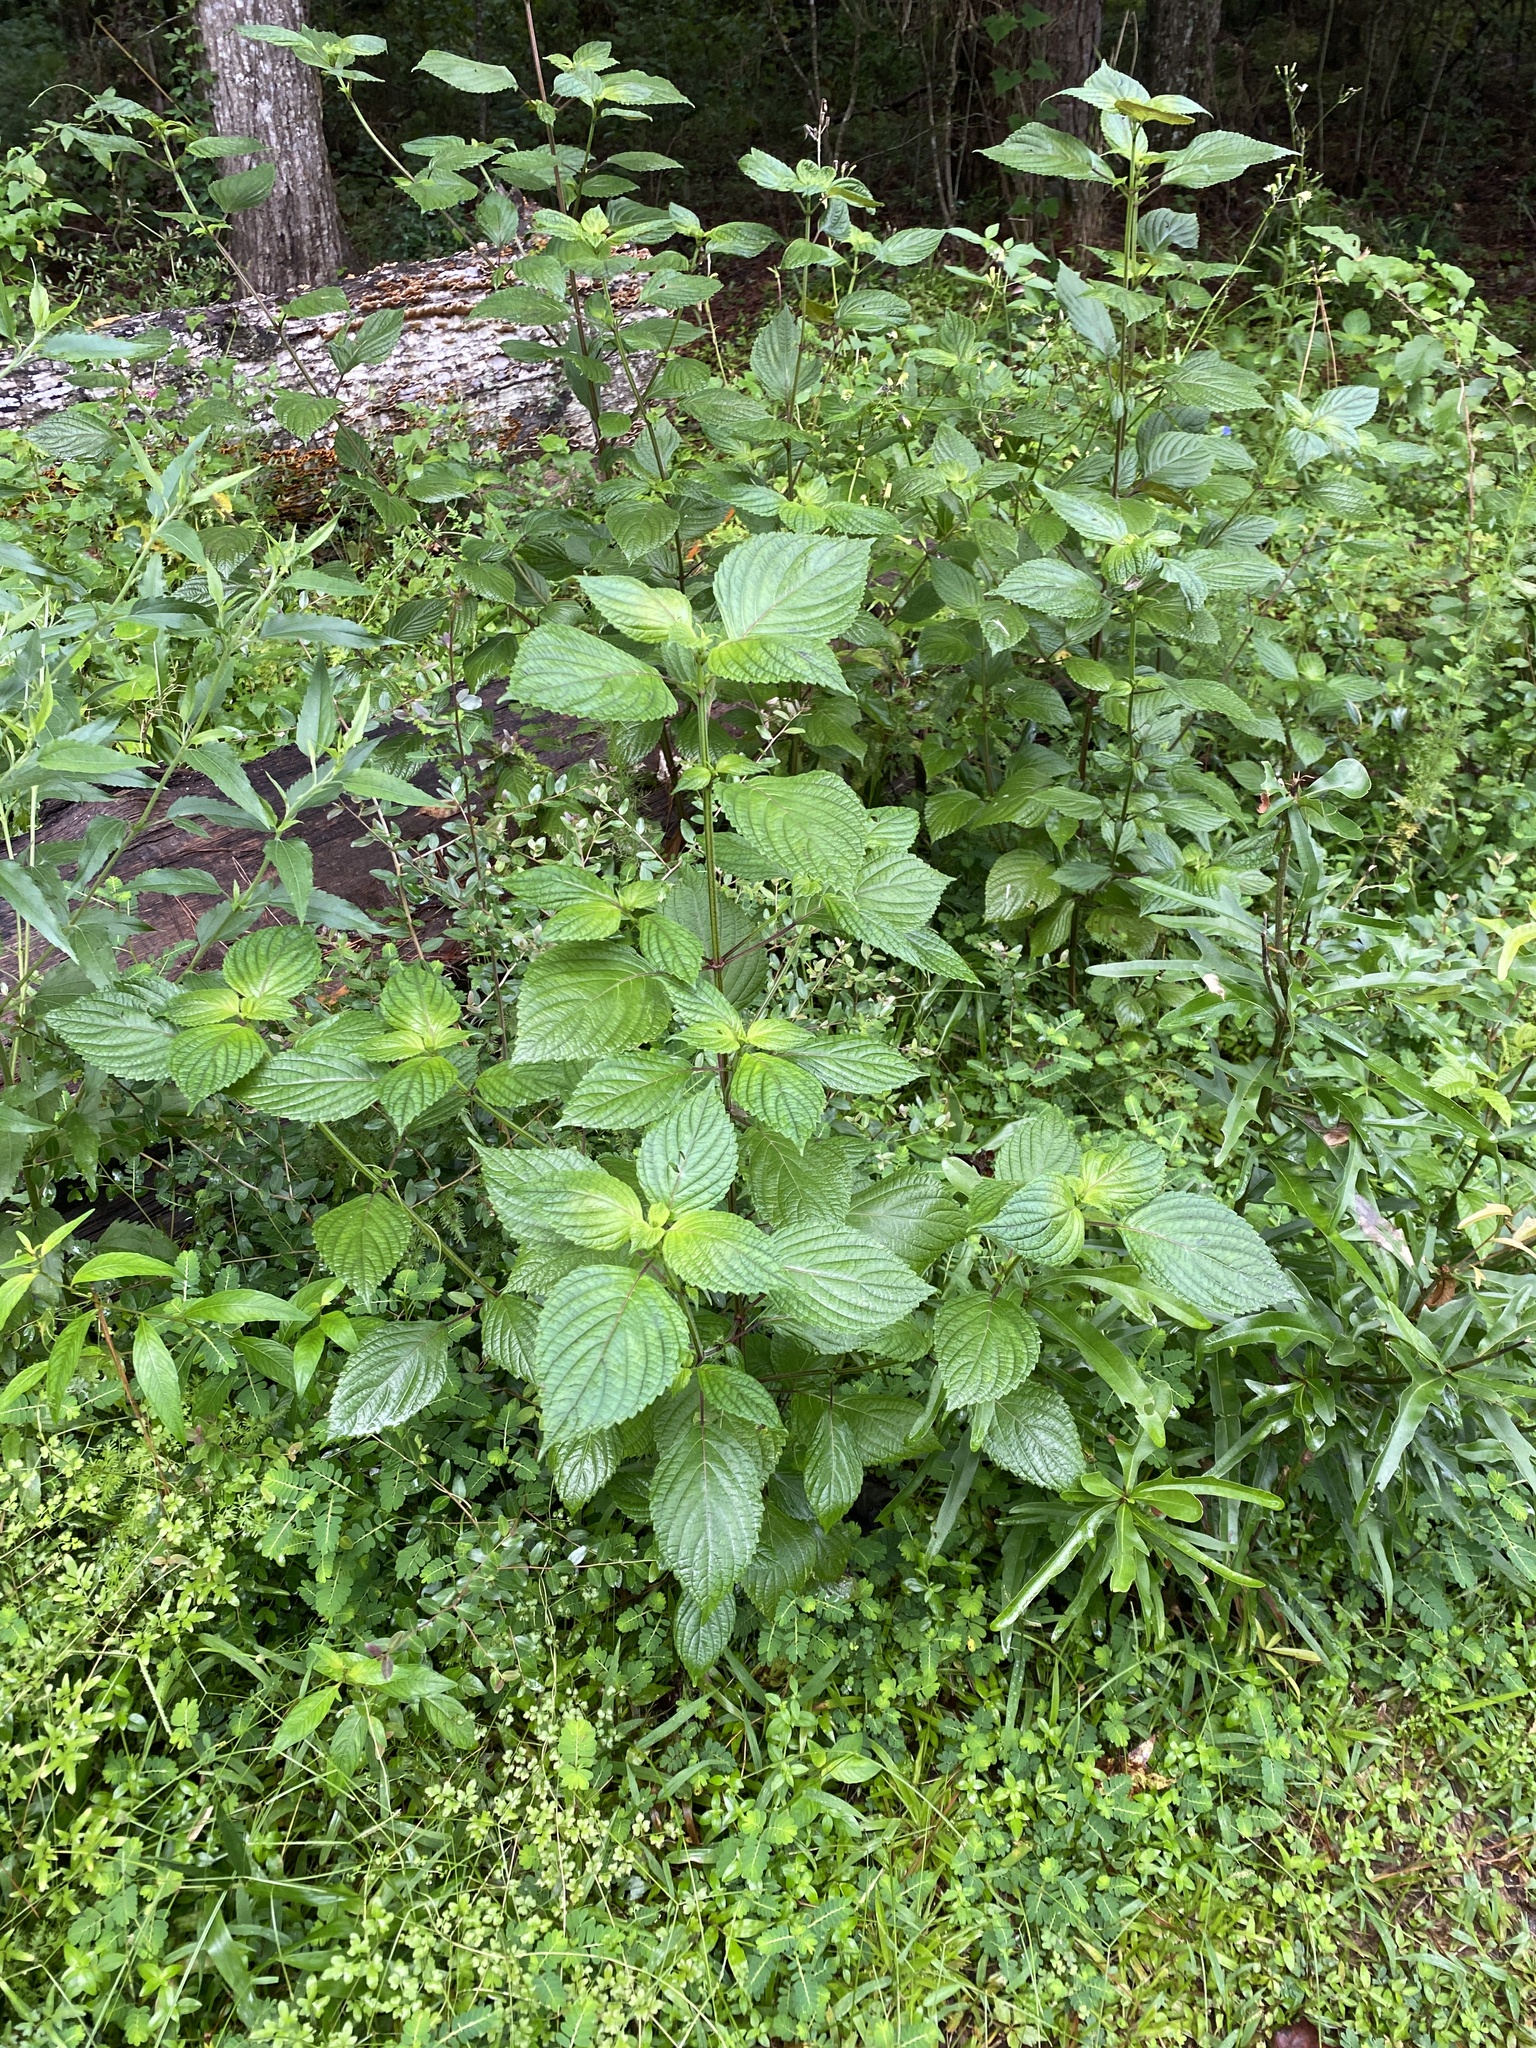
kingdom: Plantae
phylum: Tracheophyta
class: Magnoliopsida
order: Lamiales
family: Lamiaceae
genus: Perilla
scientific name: Perilla frutescens
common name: Perilla
